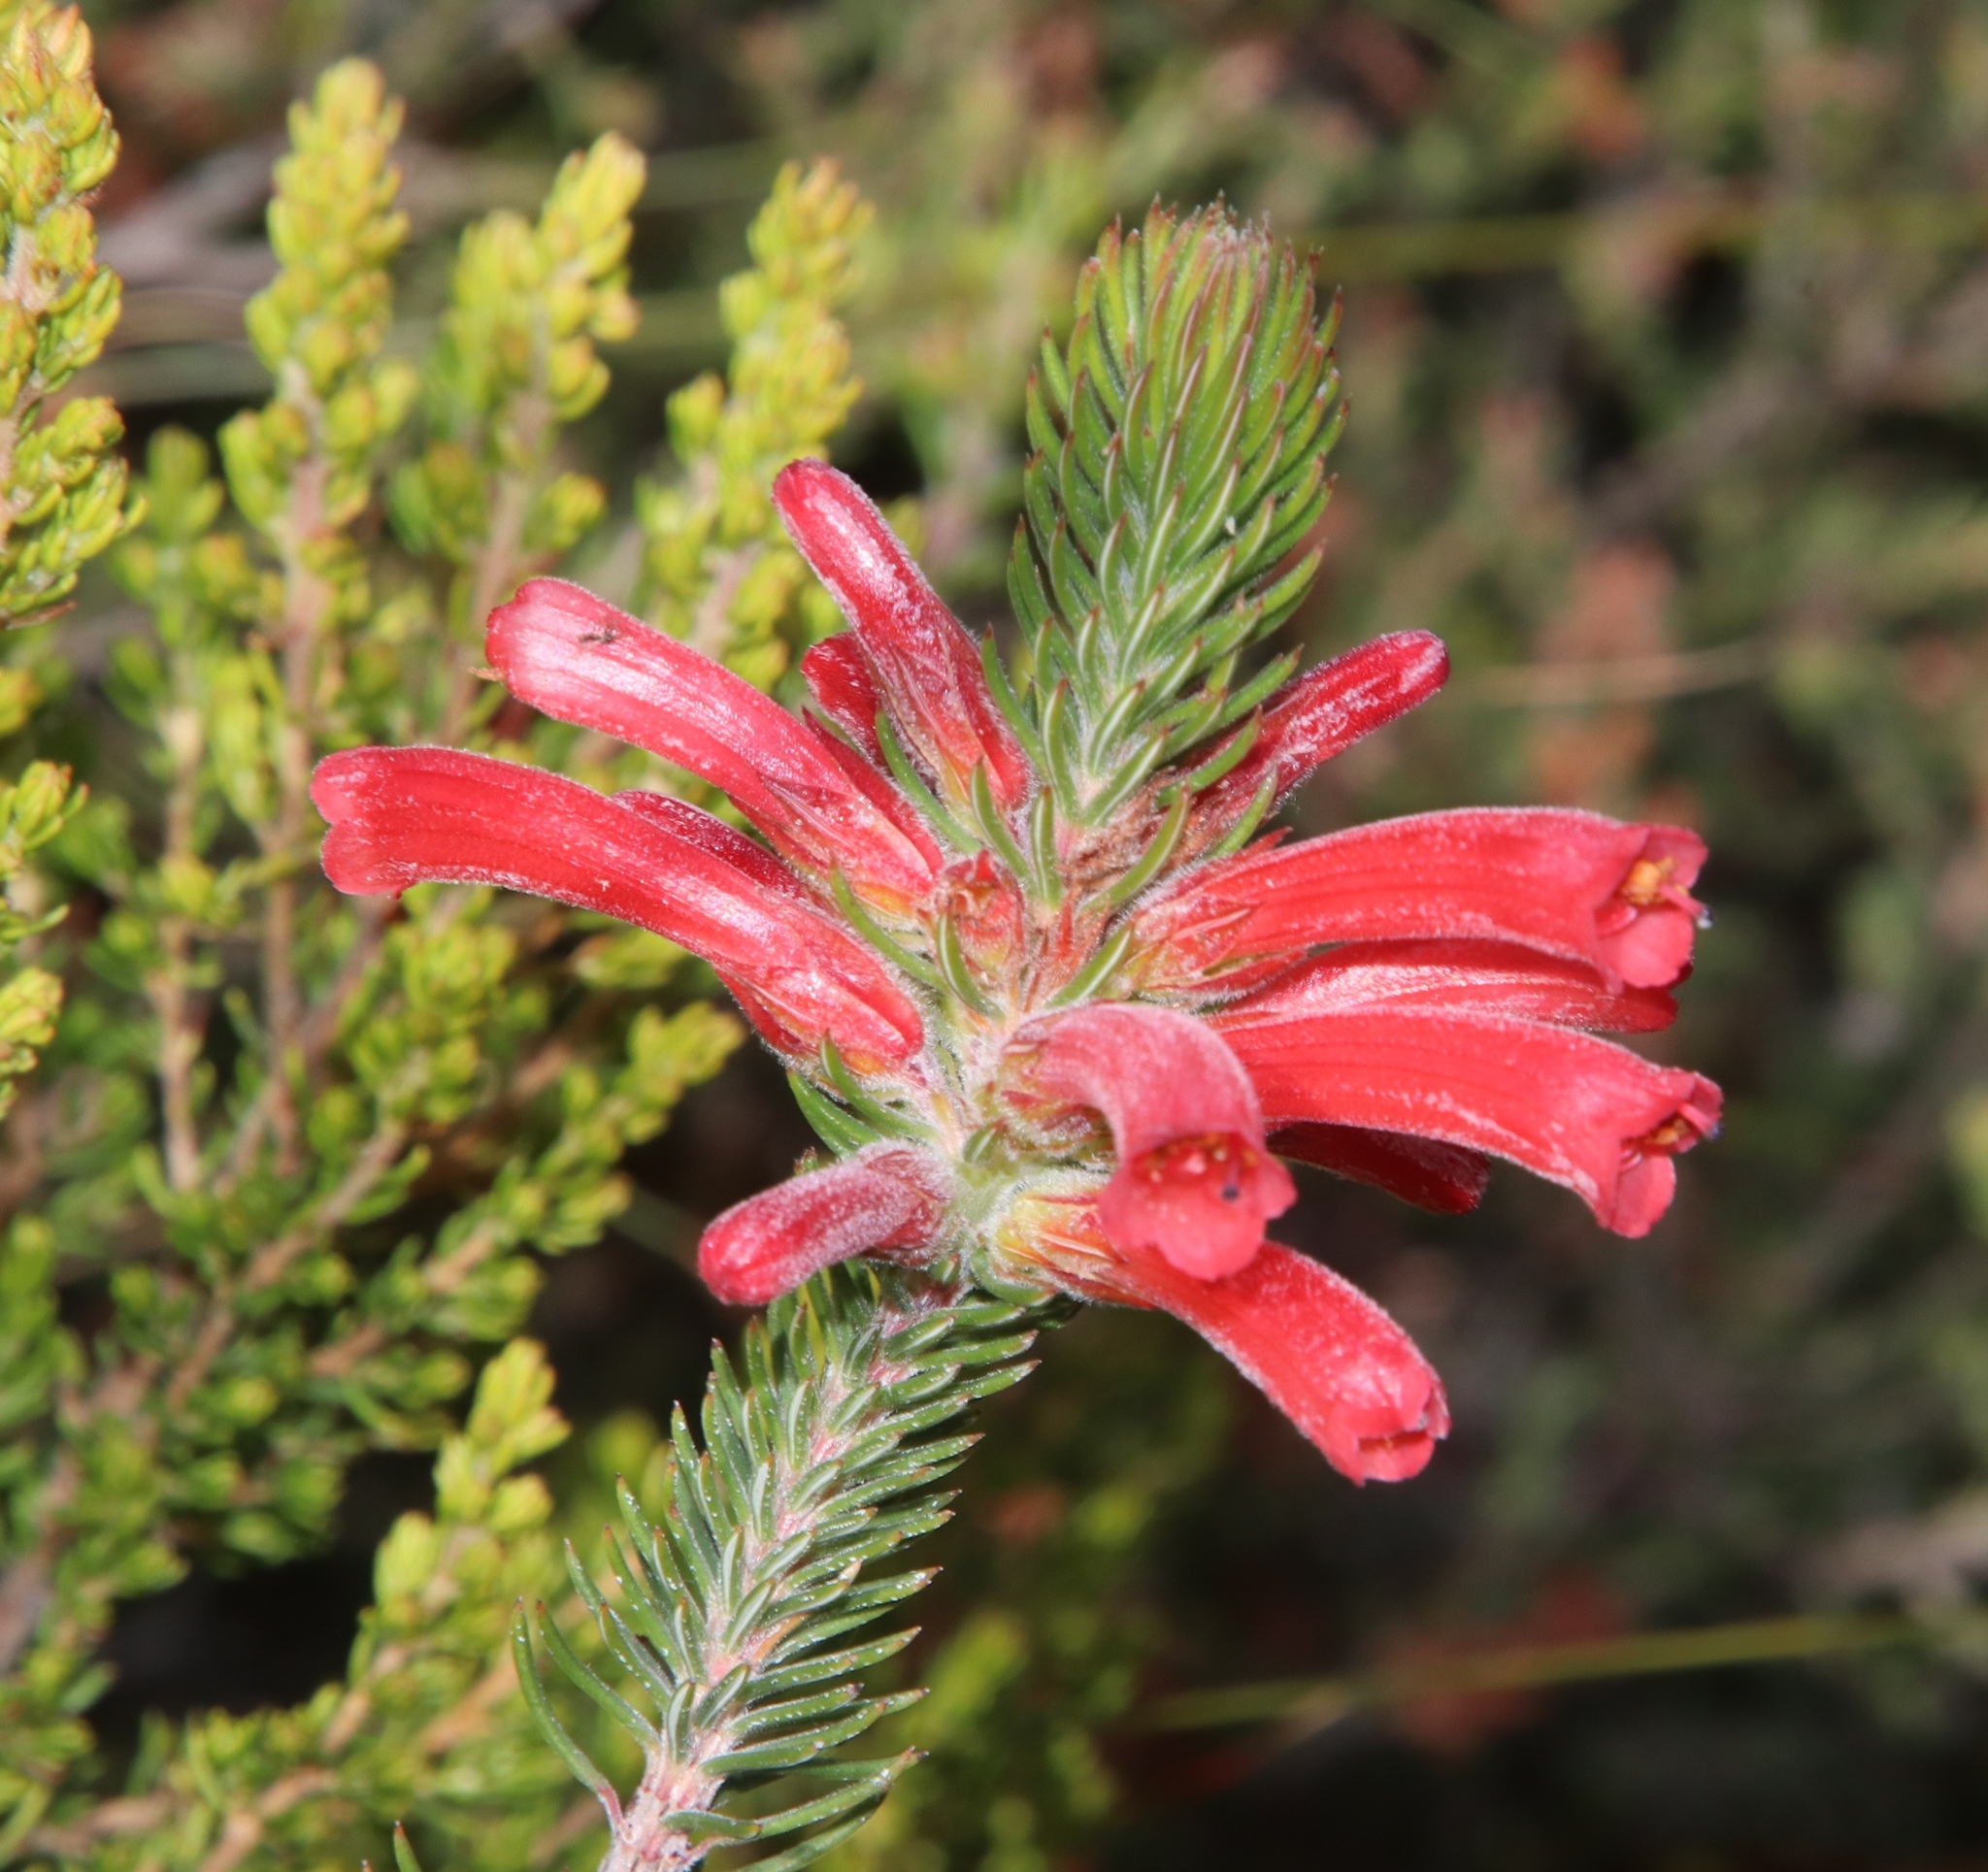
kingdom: Plantae
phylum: Tracheophyta
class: Magnoliopsida
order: Ericales
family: Ericaceae
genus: Erica
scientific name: Erica abietina
